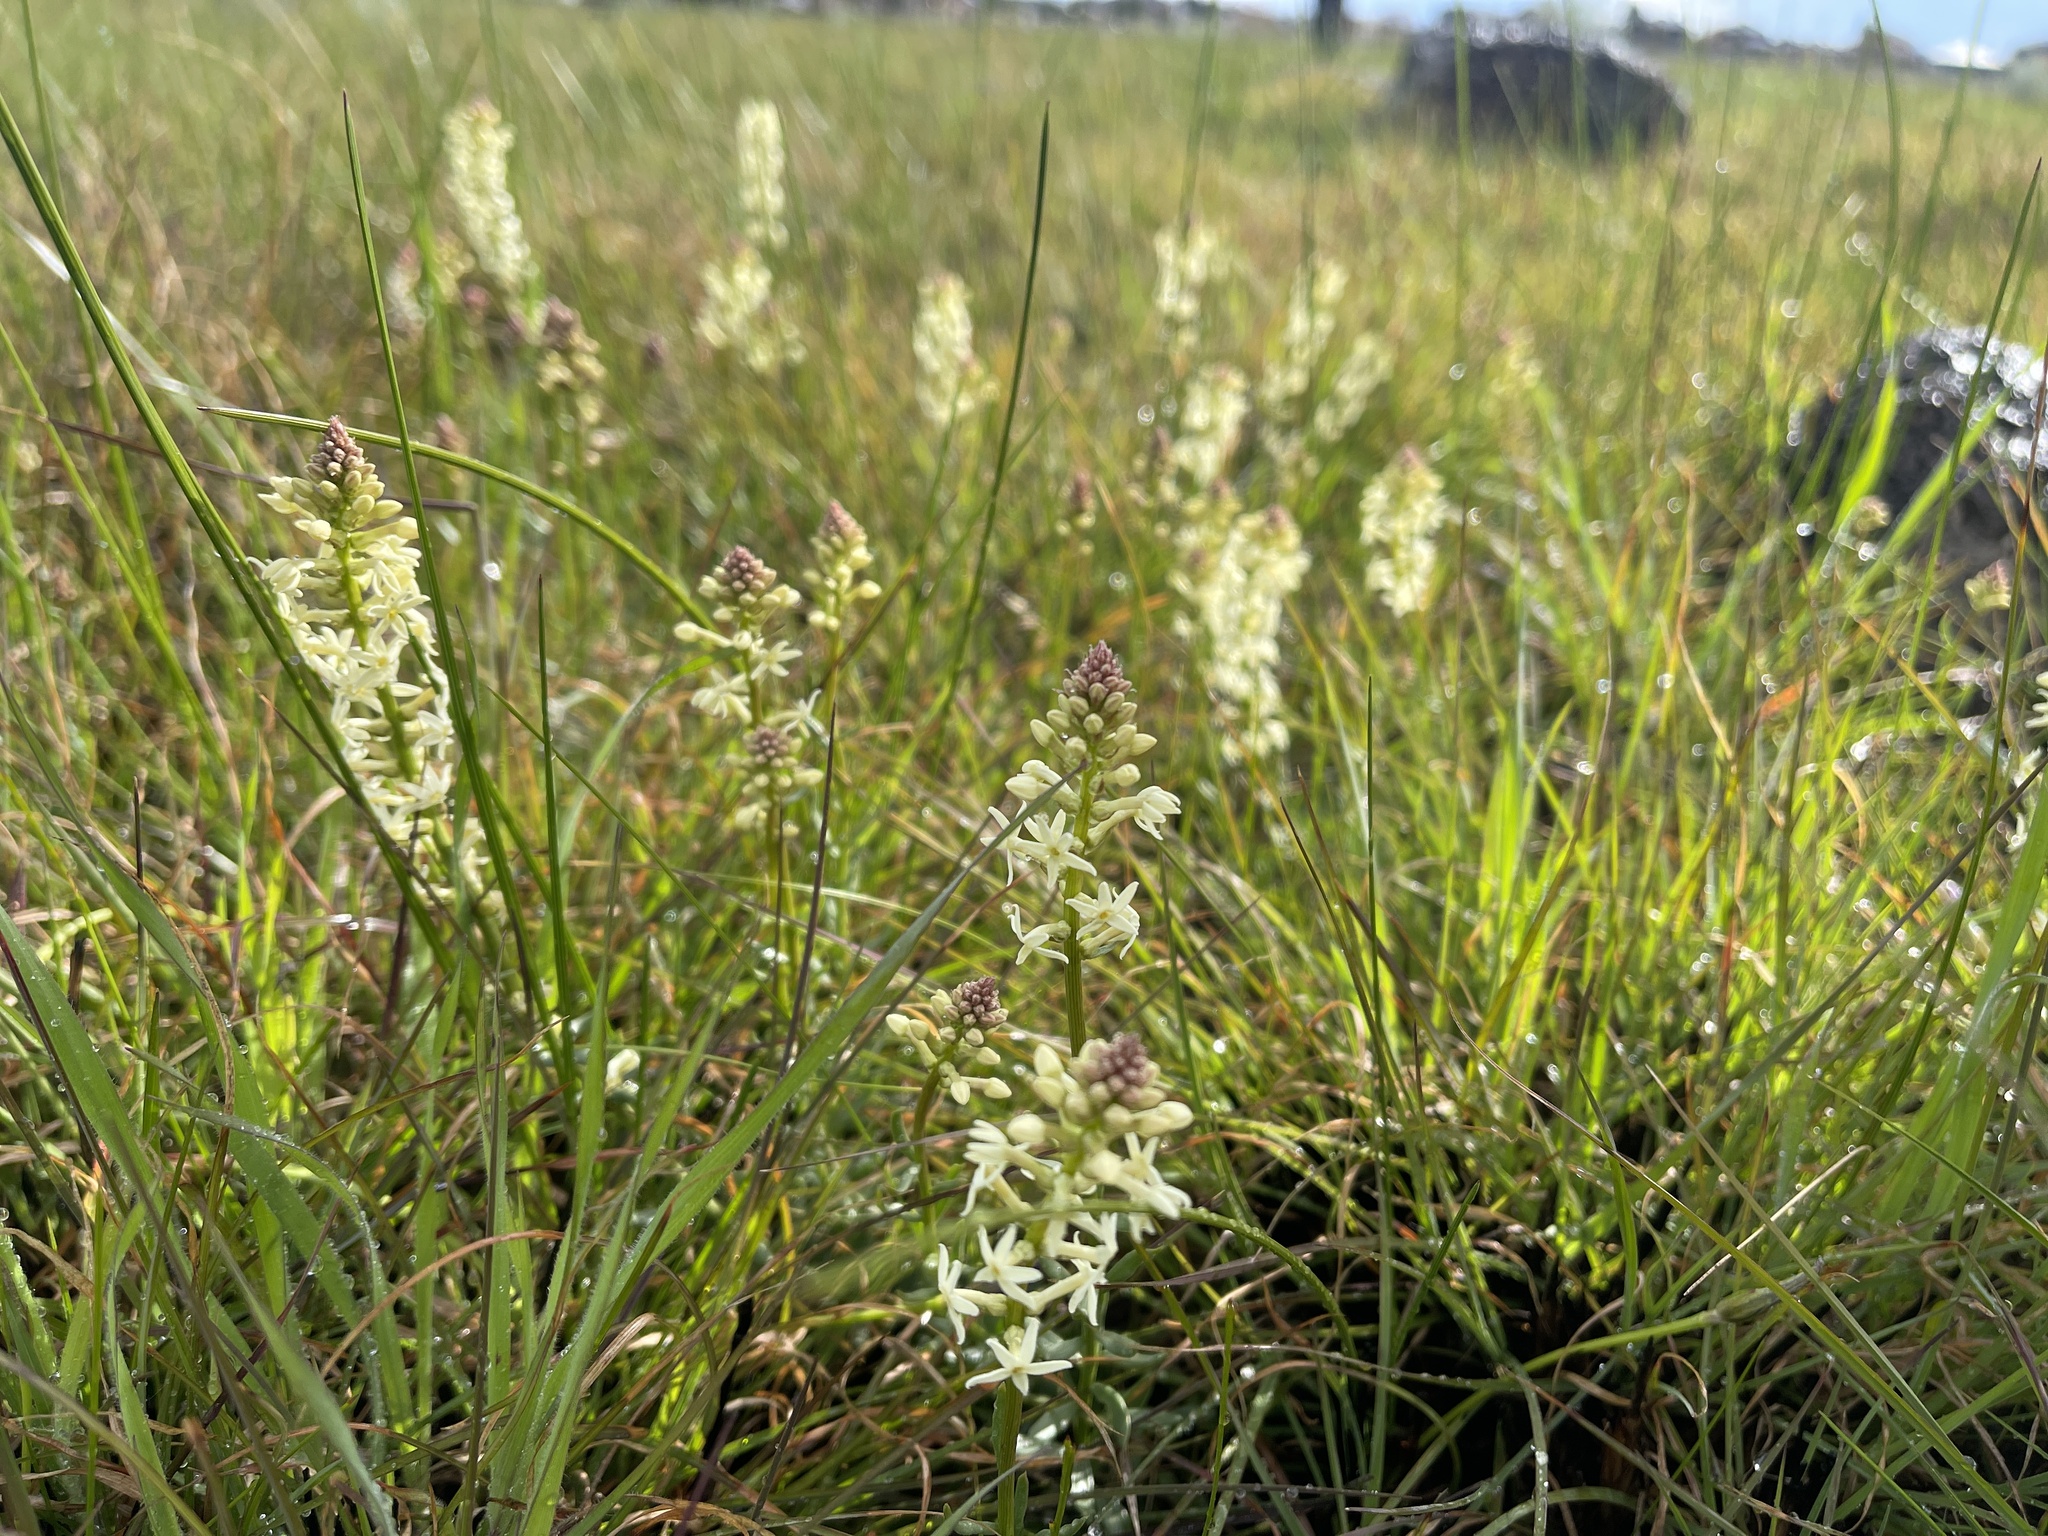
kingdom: Plantae
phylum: Tracheophyta
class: Magnoliopsida
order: Celastrales
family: Celastraceae
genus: Stackhousia
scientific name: Stackhousia subterranea
